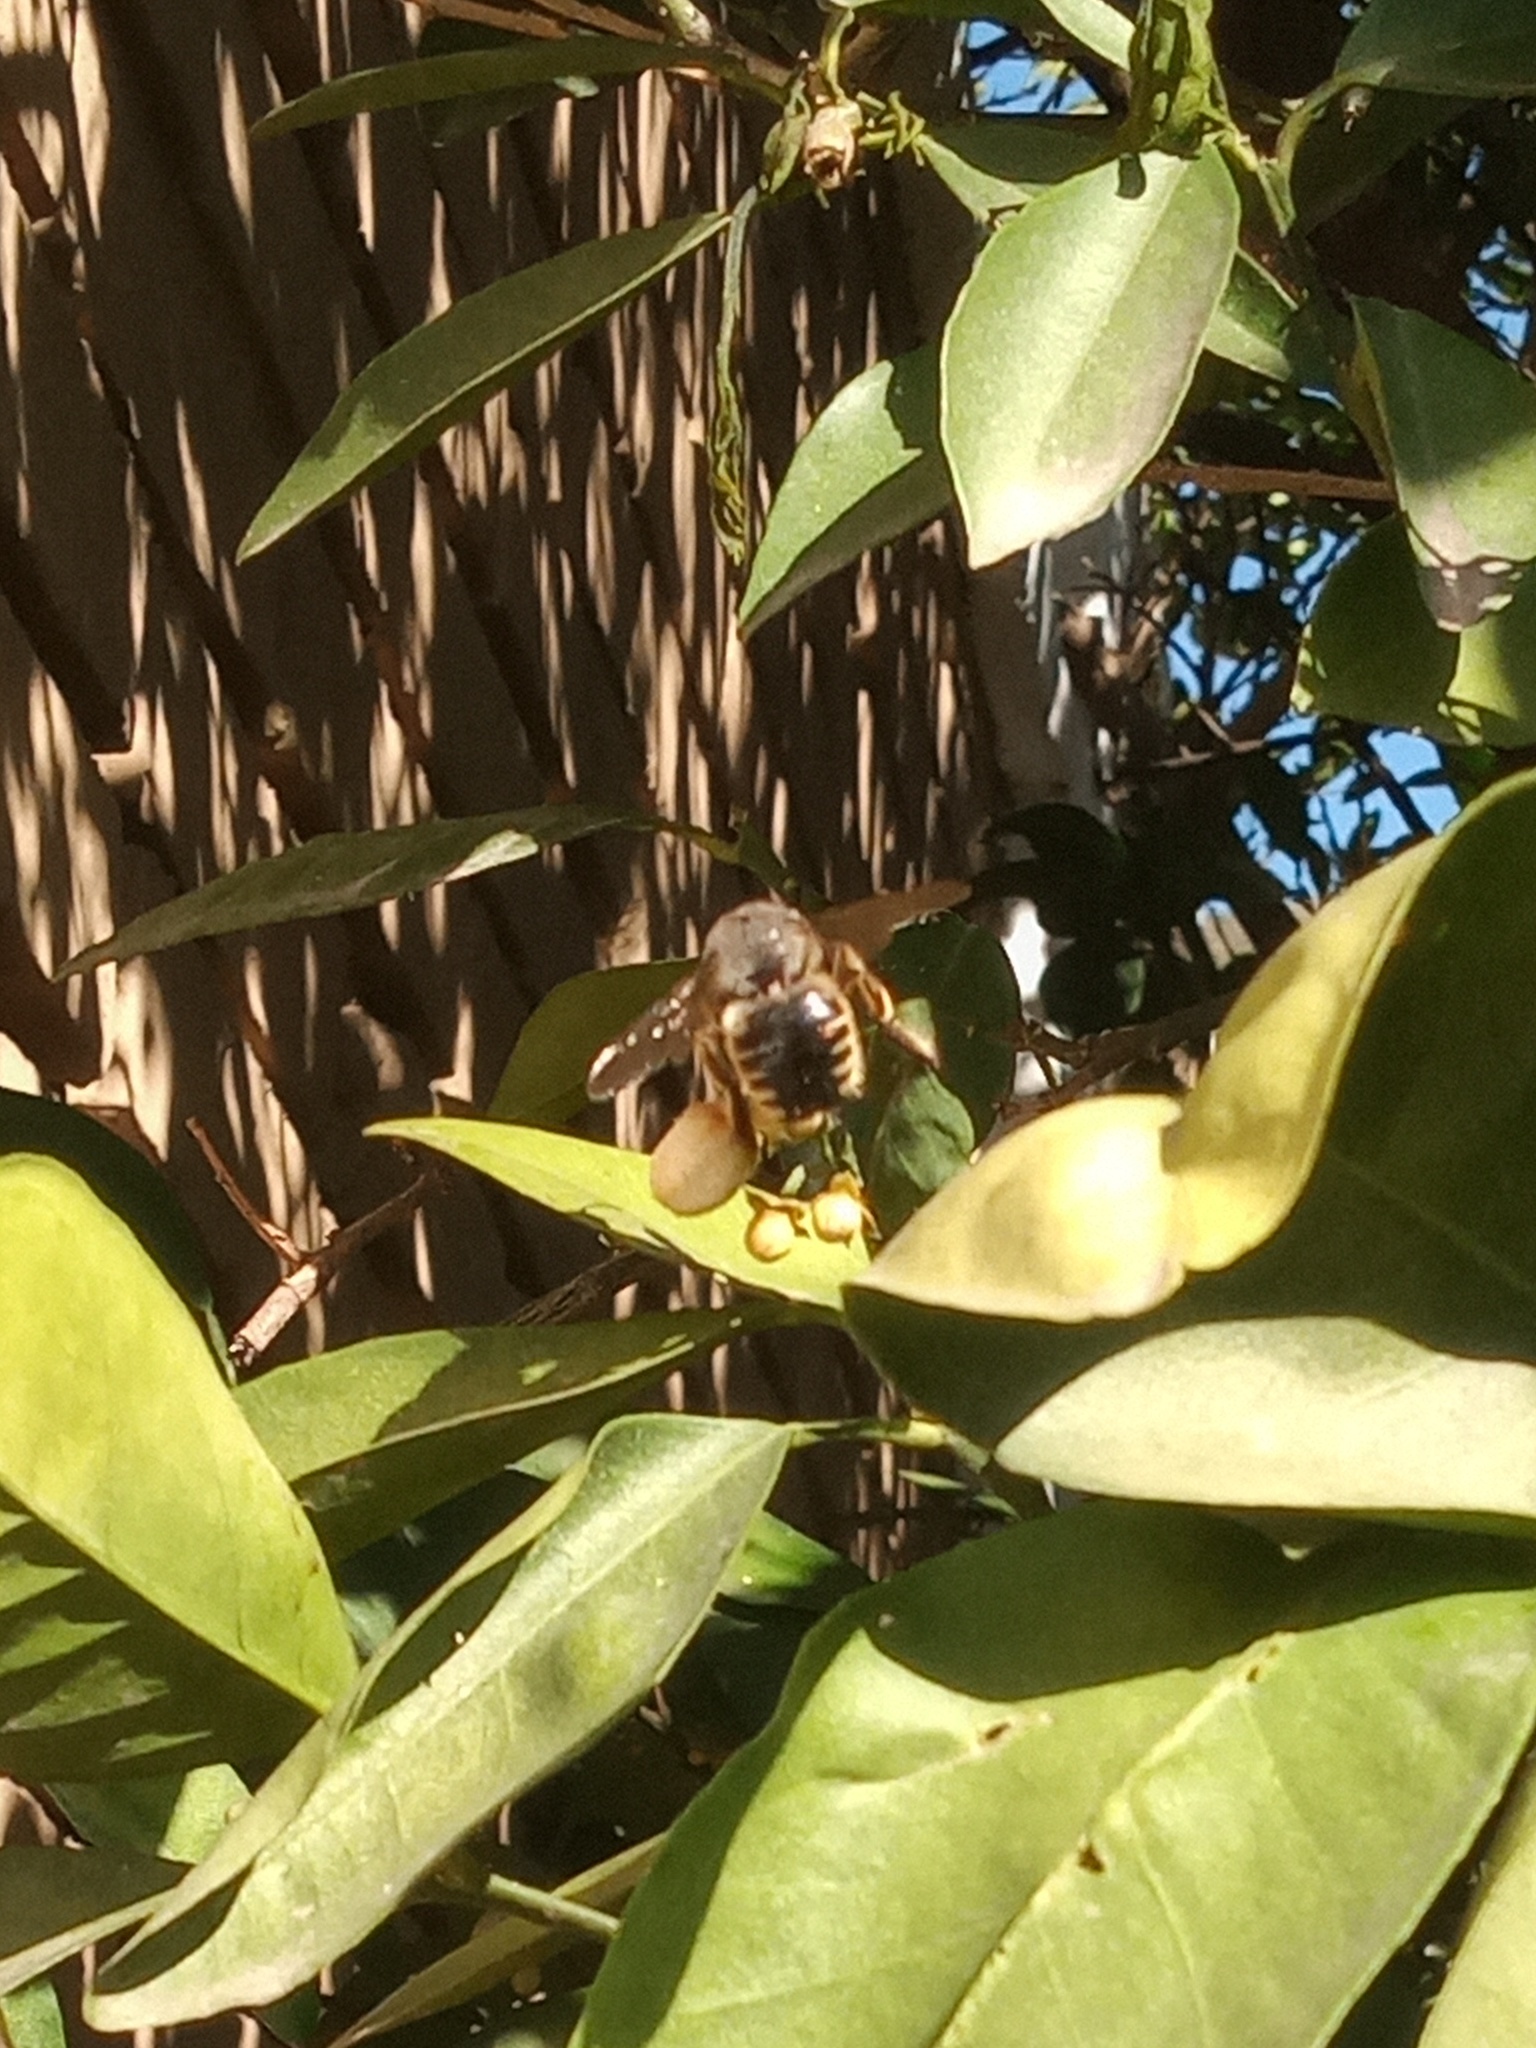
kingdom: Animalia
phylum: Arthropoda
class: Insecta
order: Hymenoptera
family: Apidae
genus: Xylocopa
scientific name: Xylocopa tabaniformis
